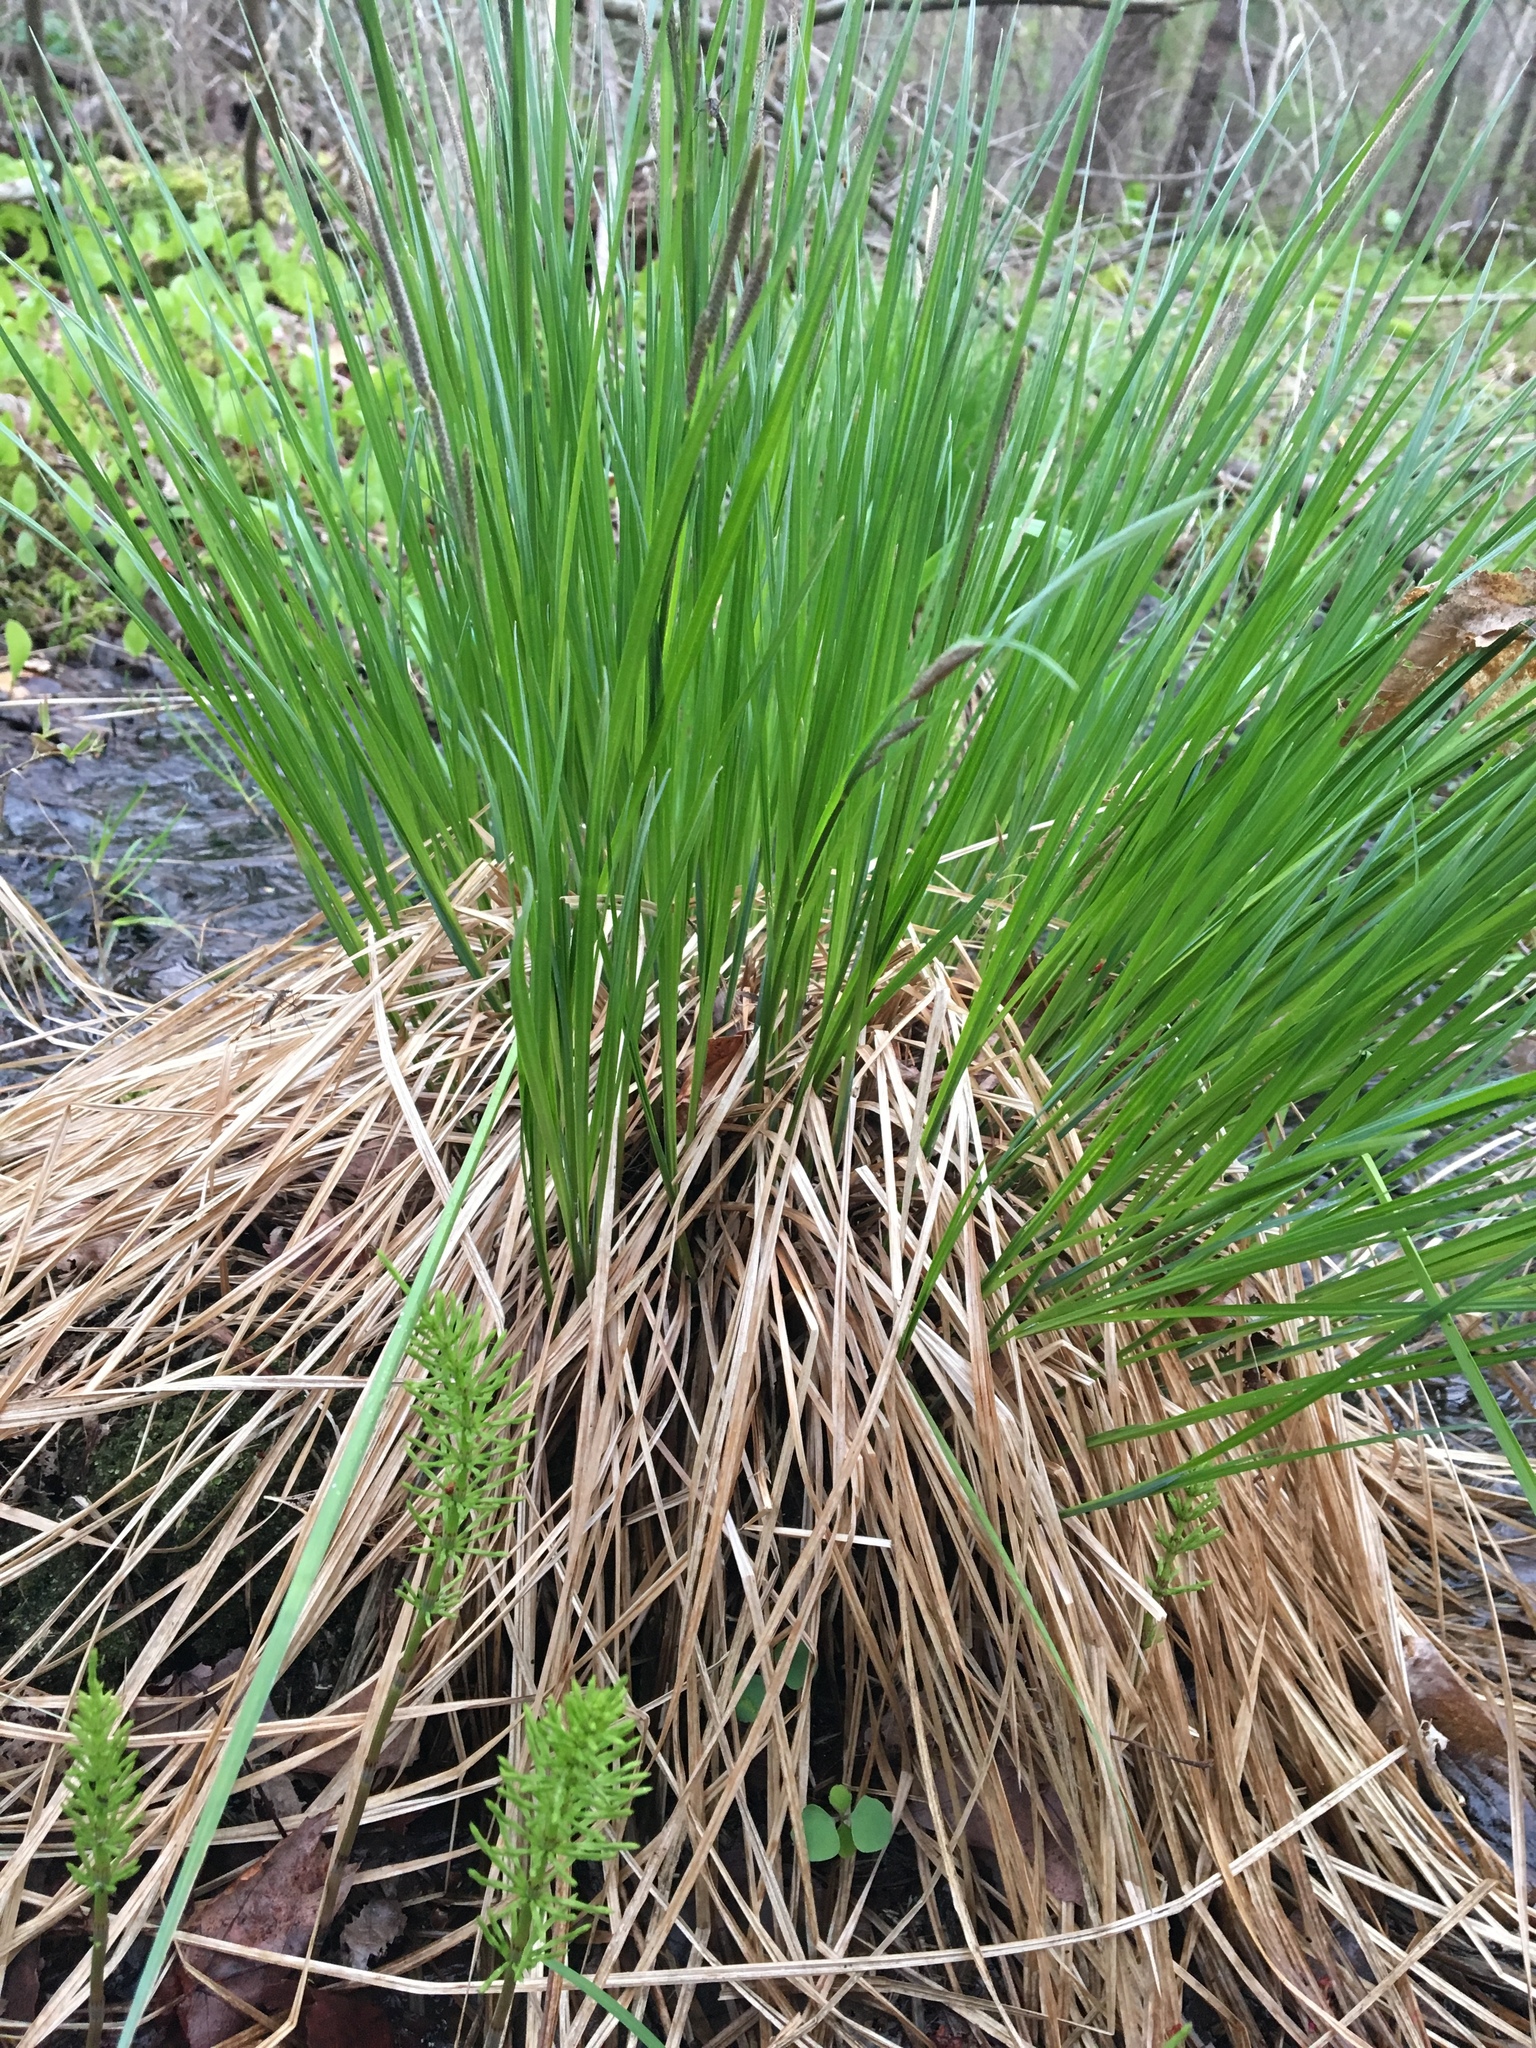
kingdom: Plantae
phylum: Tracheophyta
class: Liliopsida
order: Poales
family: Cyperaceae
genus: Carex
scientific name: Carex stricta
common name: Hummock sedge
